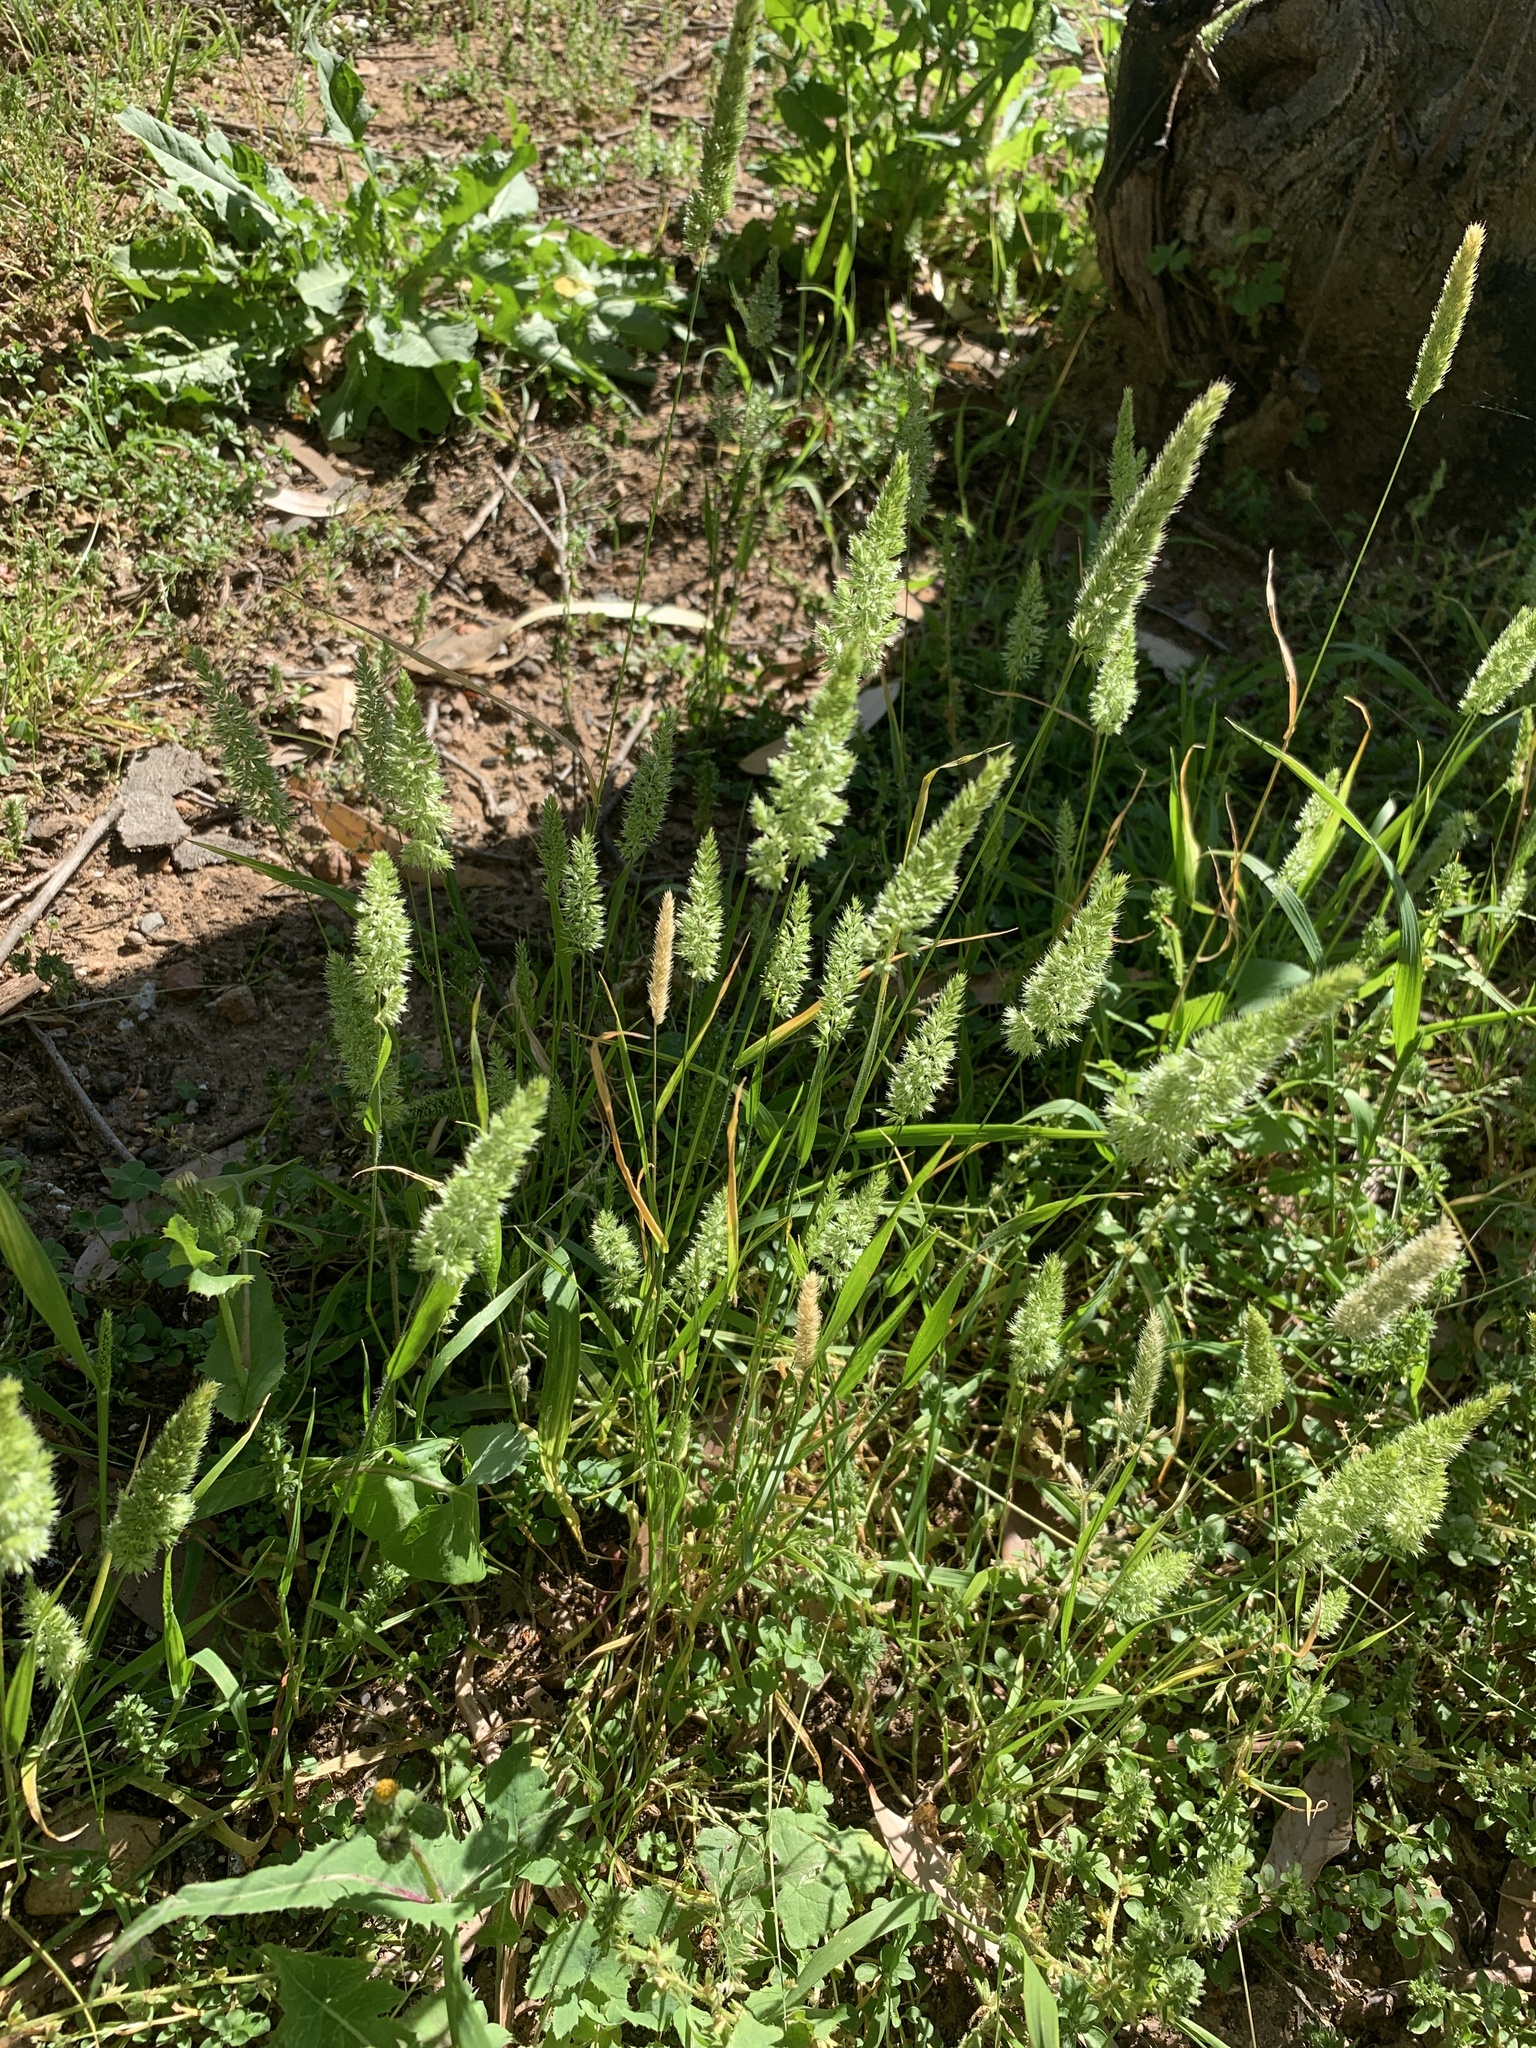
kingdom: Plantae
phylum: Tracheophyta
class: Liliopsida
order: Poales
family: Poaceae
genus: Rostraria
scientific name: Rostraria cristata
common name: Mediterranean hair-grass
